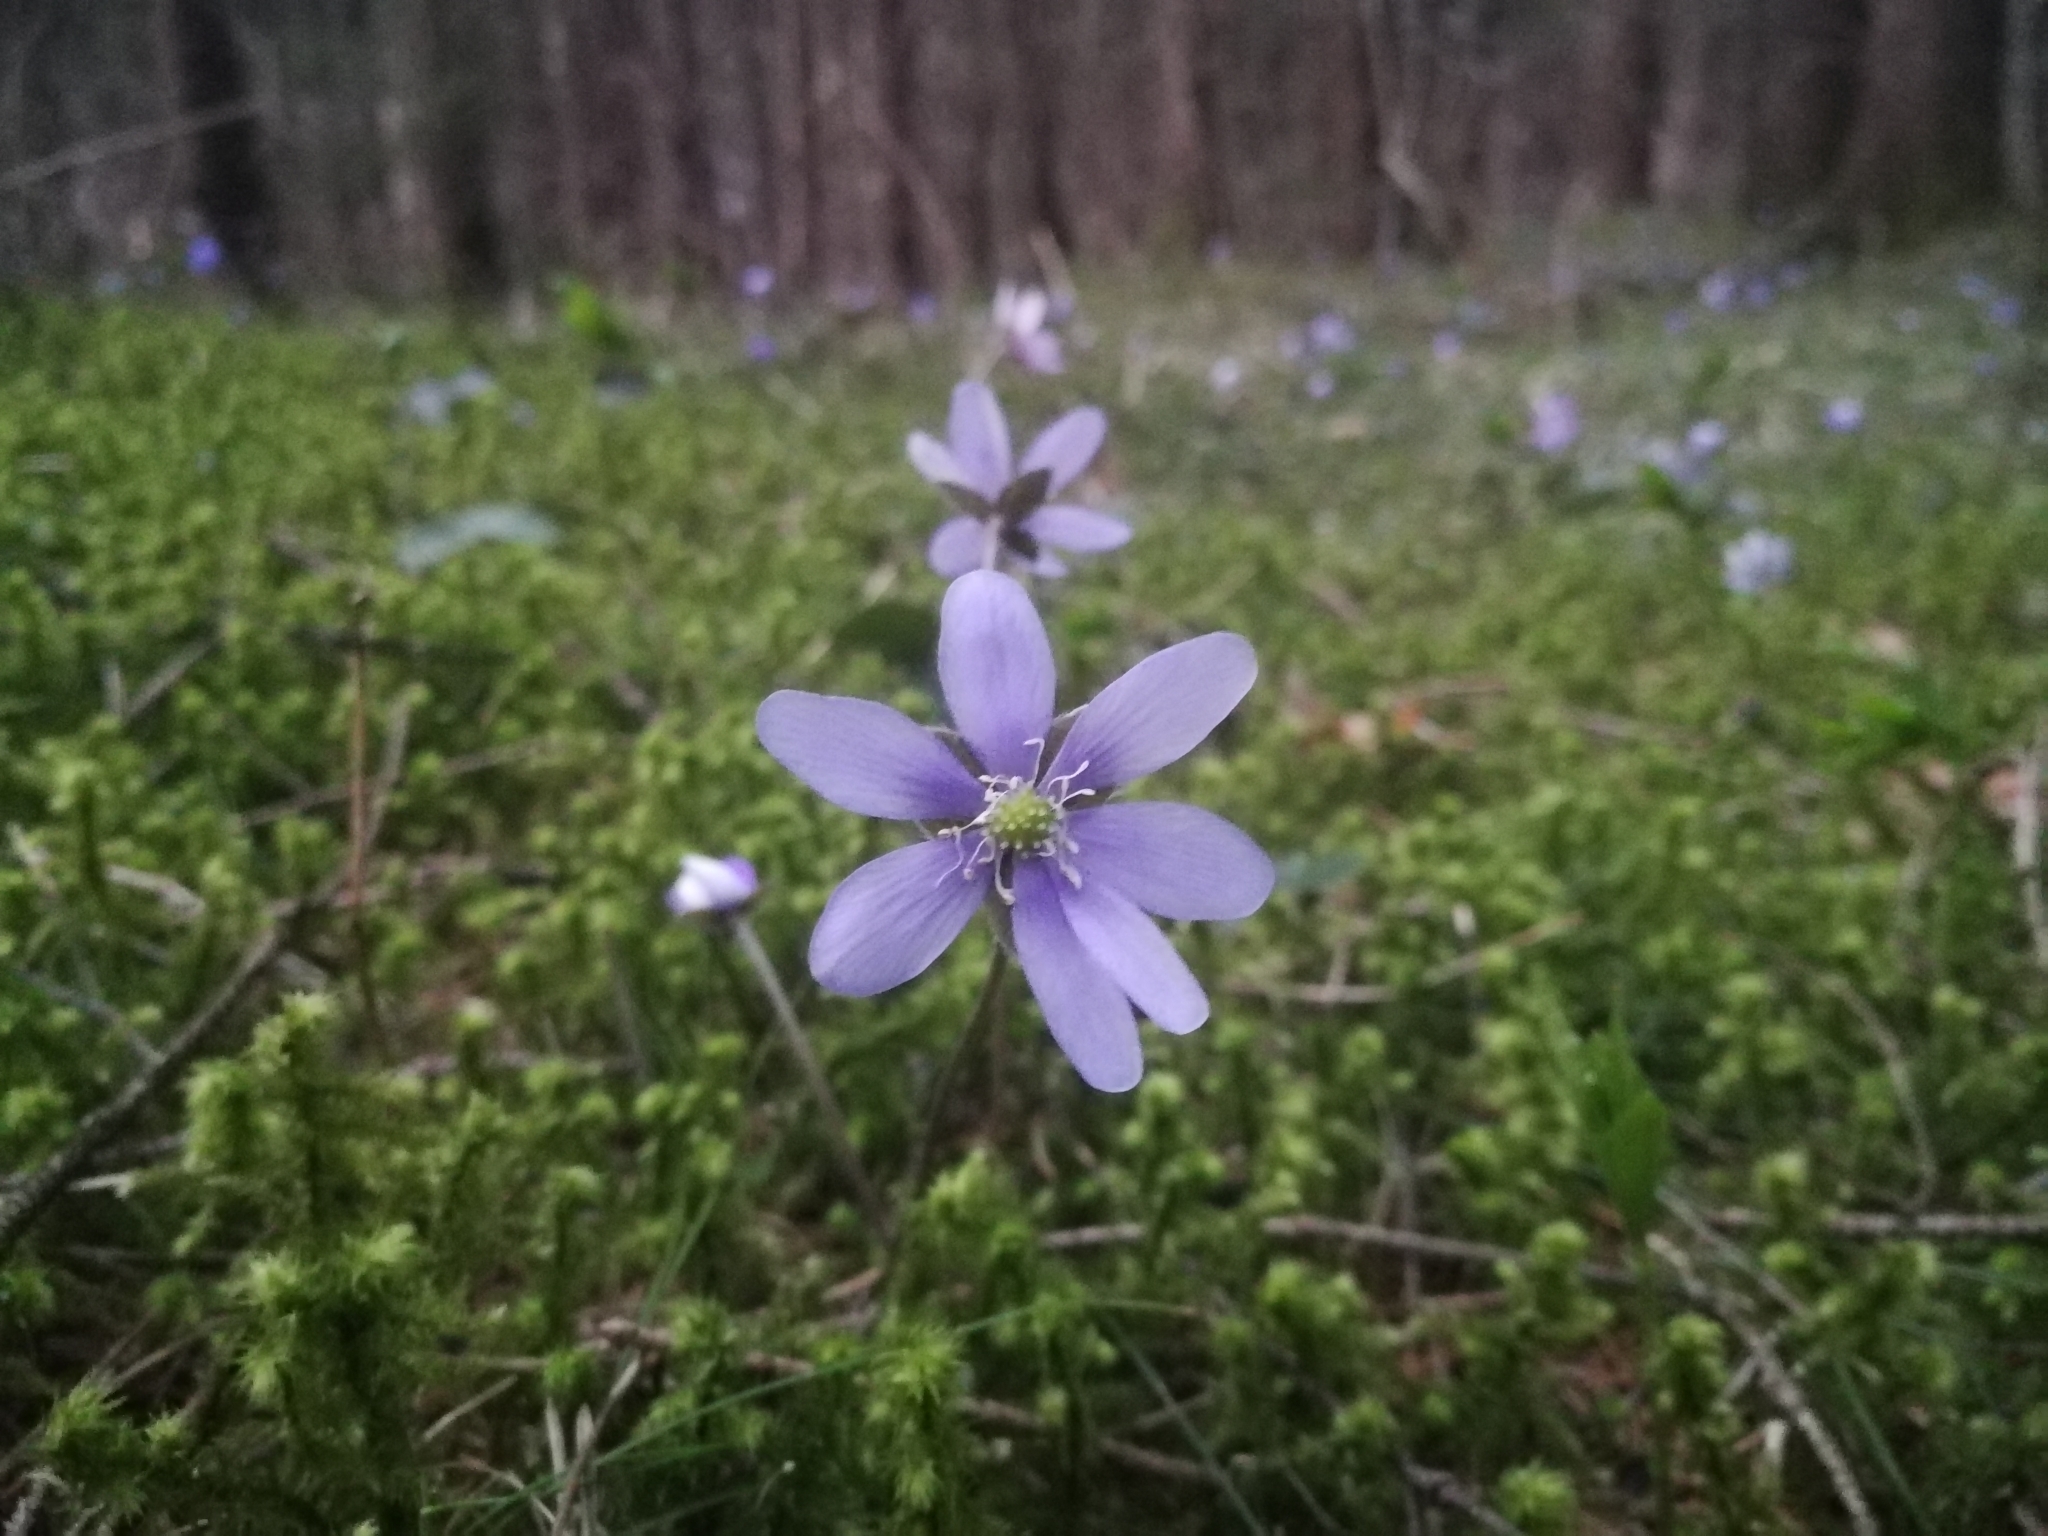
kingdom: Plantae
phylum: Tracheophyta
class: Magnoliopsida
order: Ranunculales
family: Ranunculaceae
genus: Hepatica
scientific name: Hepatica nobilis
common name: Liverleaf
